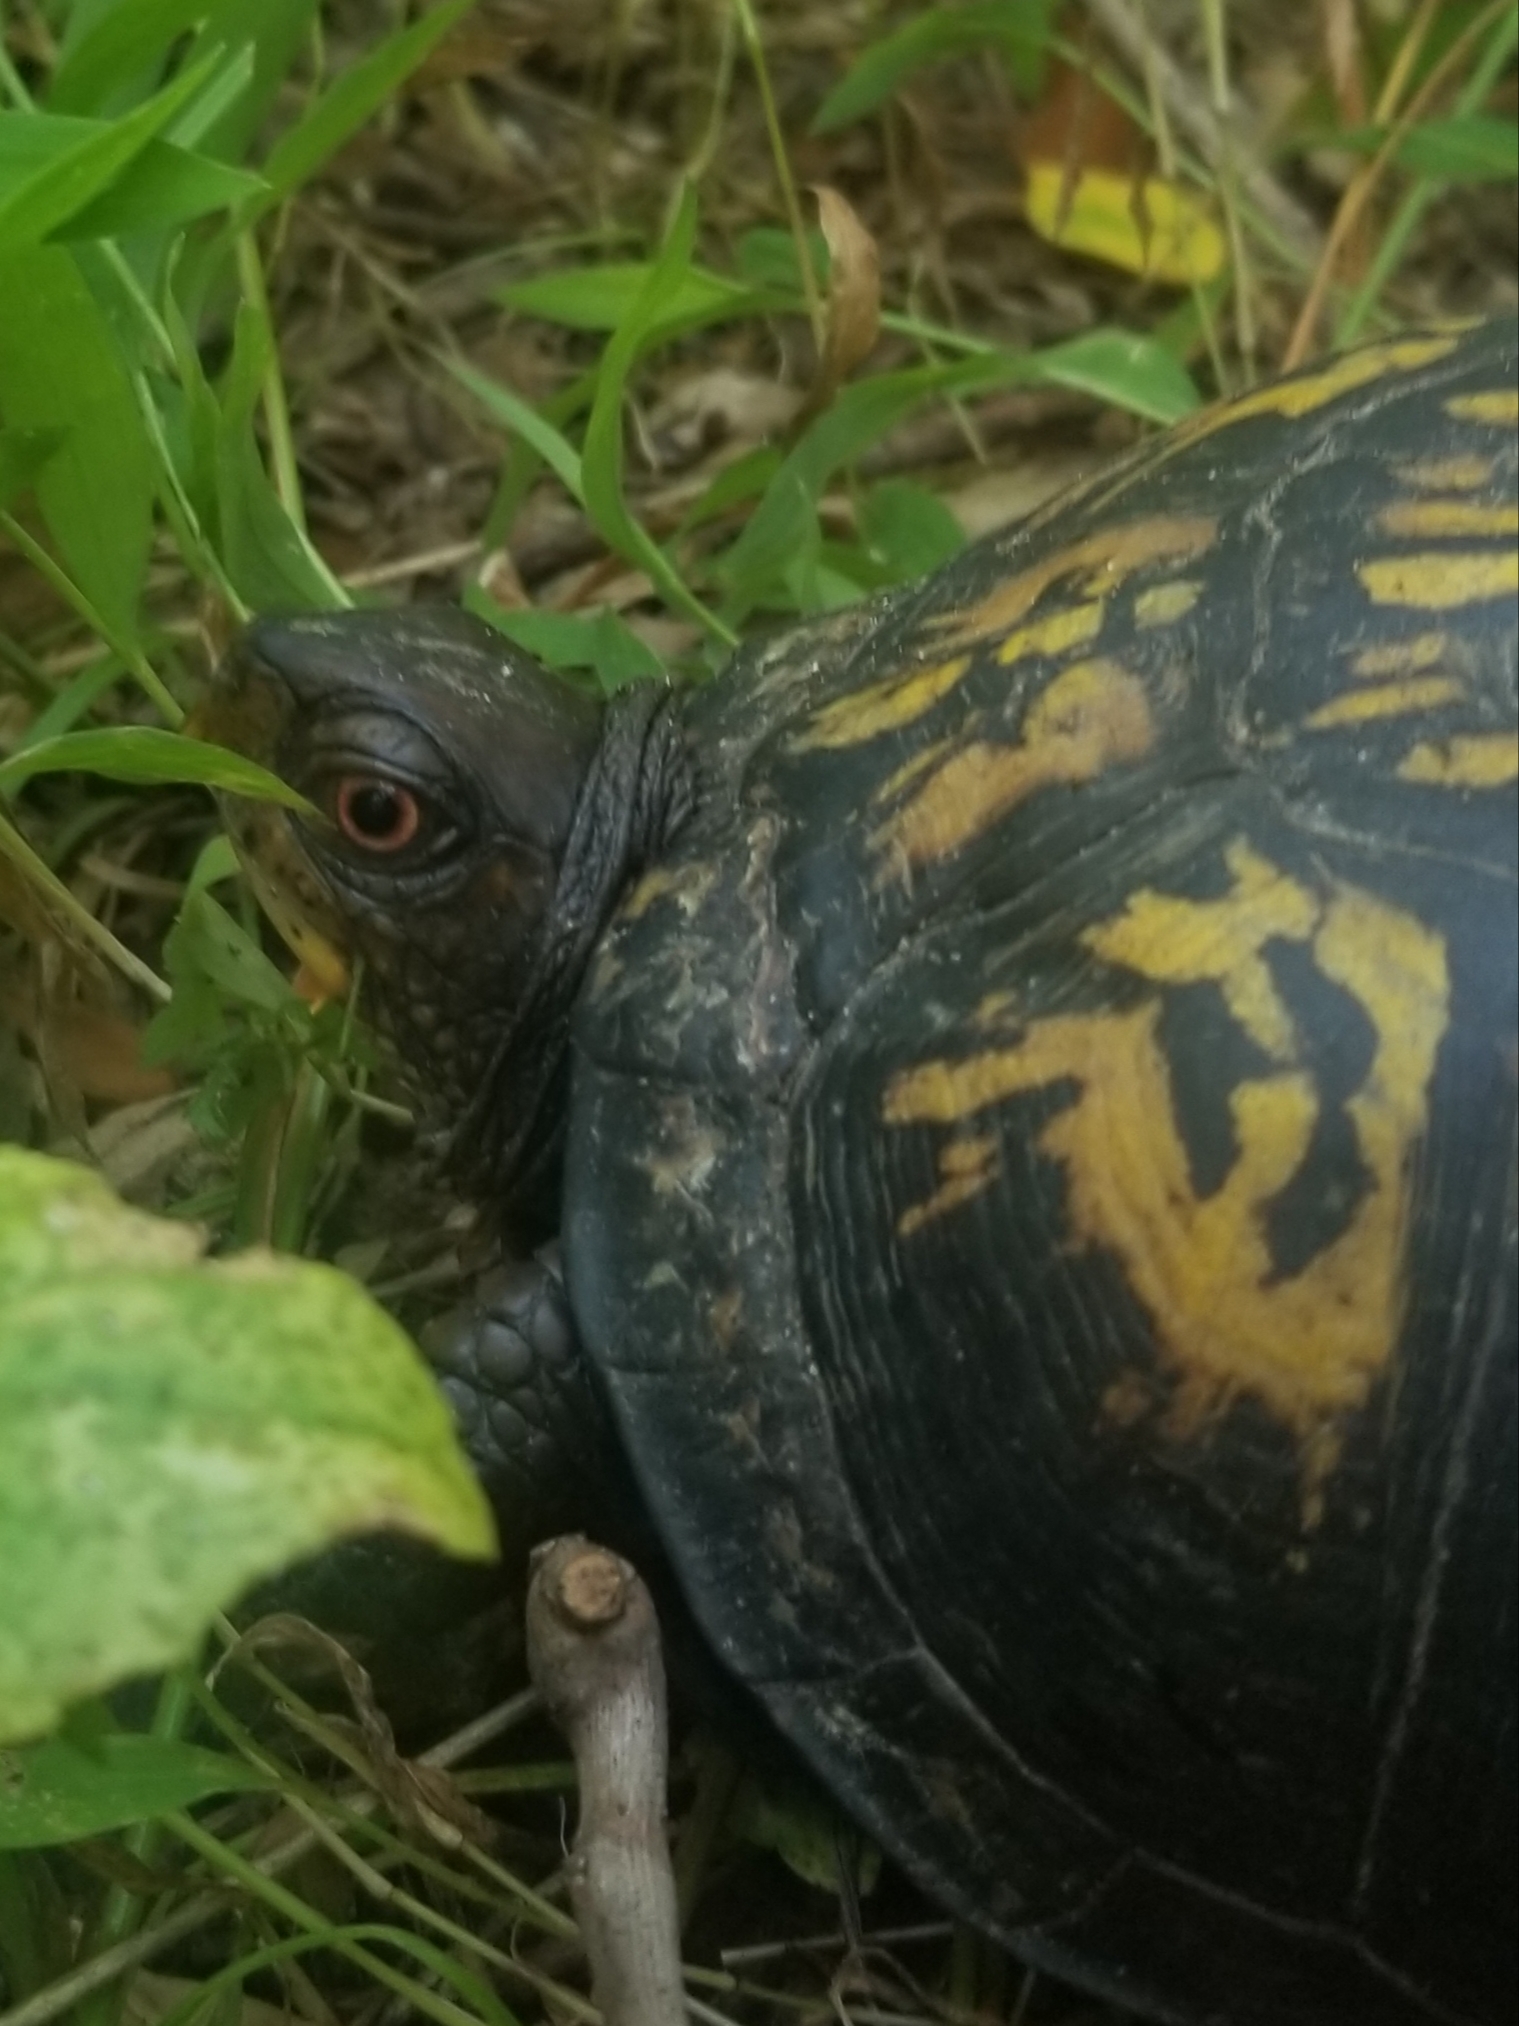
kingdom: Animalia
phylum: Chordata
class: Testudines
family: Emydidae
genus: Terrapene
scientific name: Terrapene carolina
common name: Common box turtle
